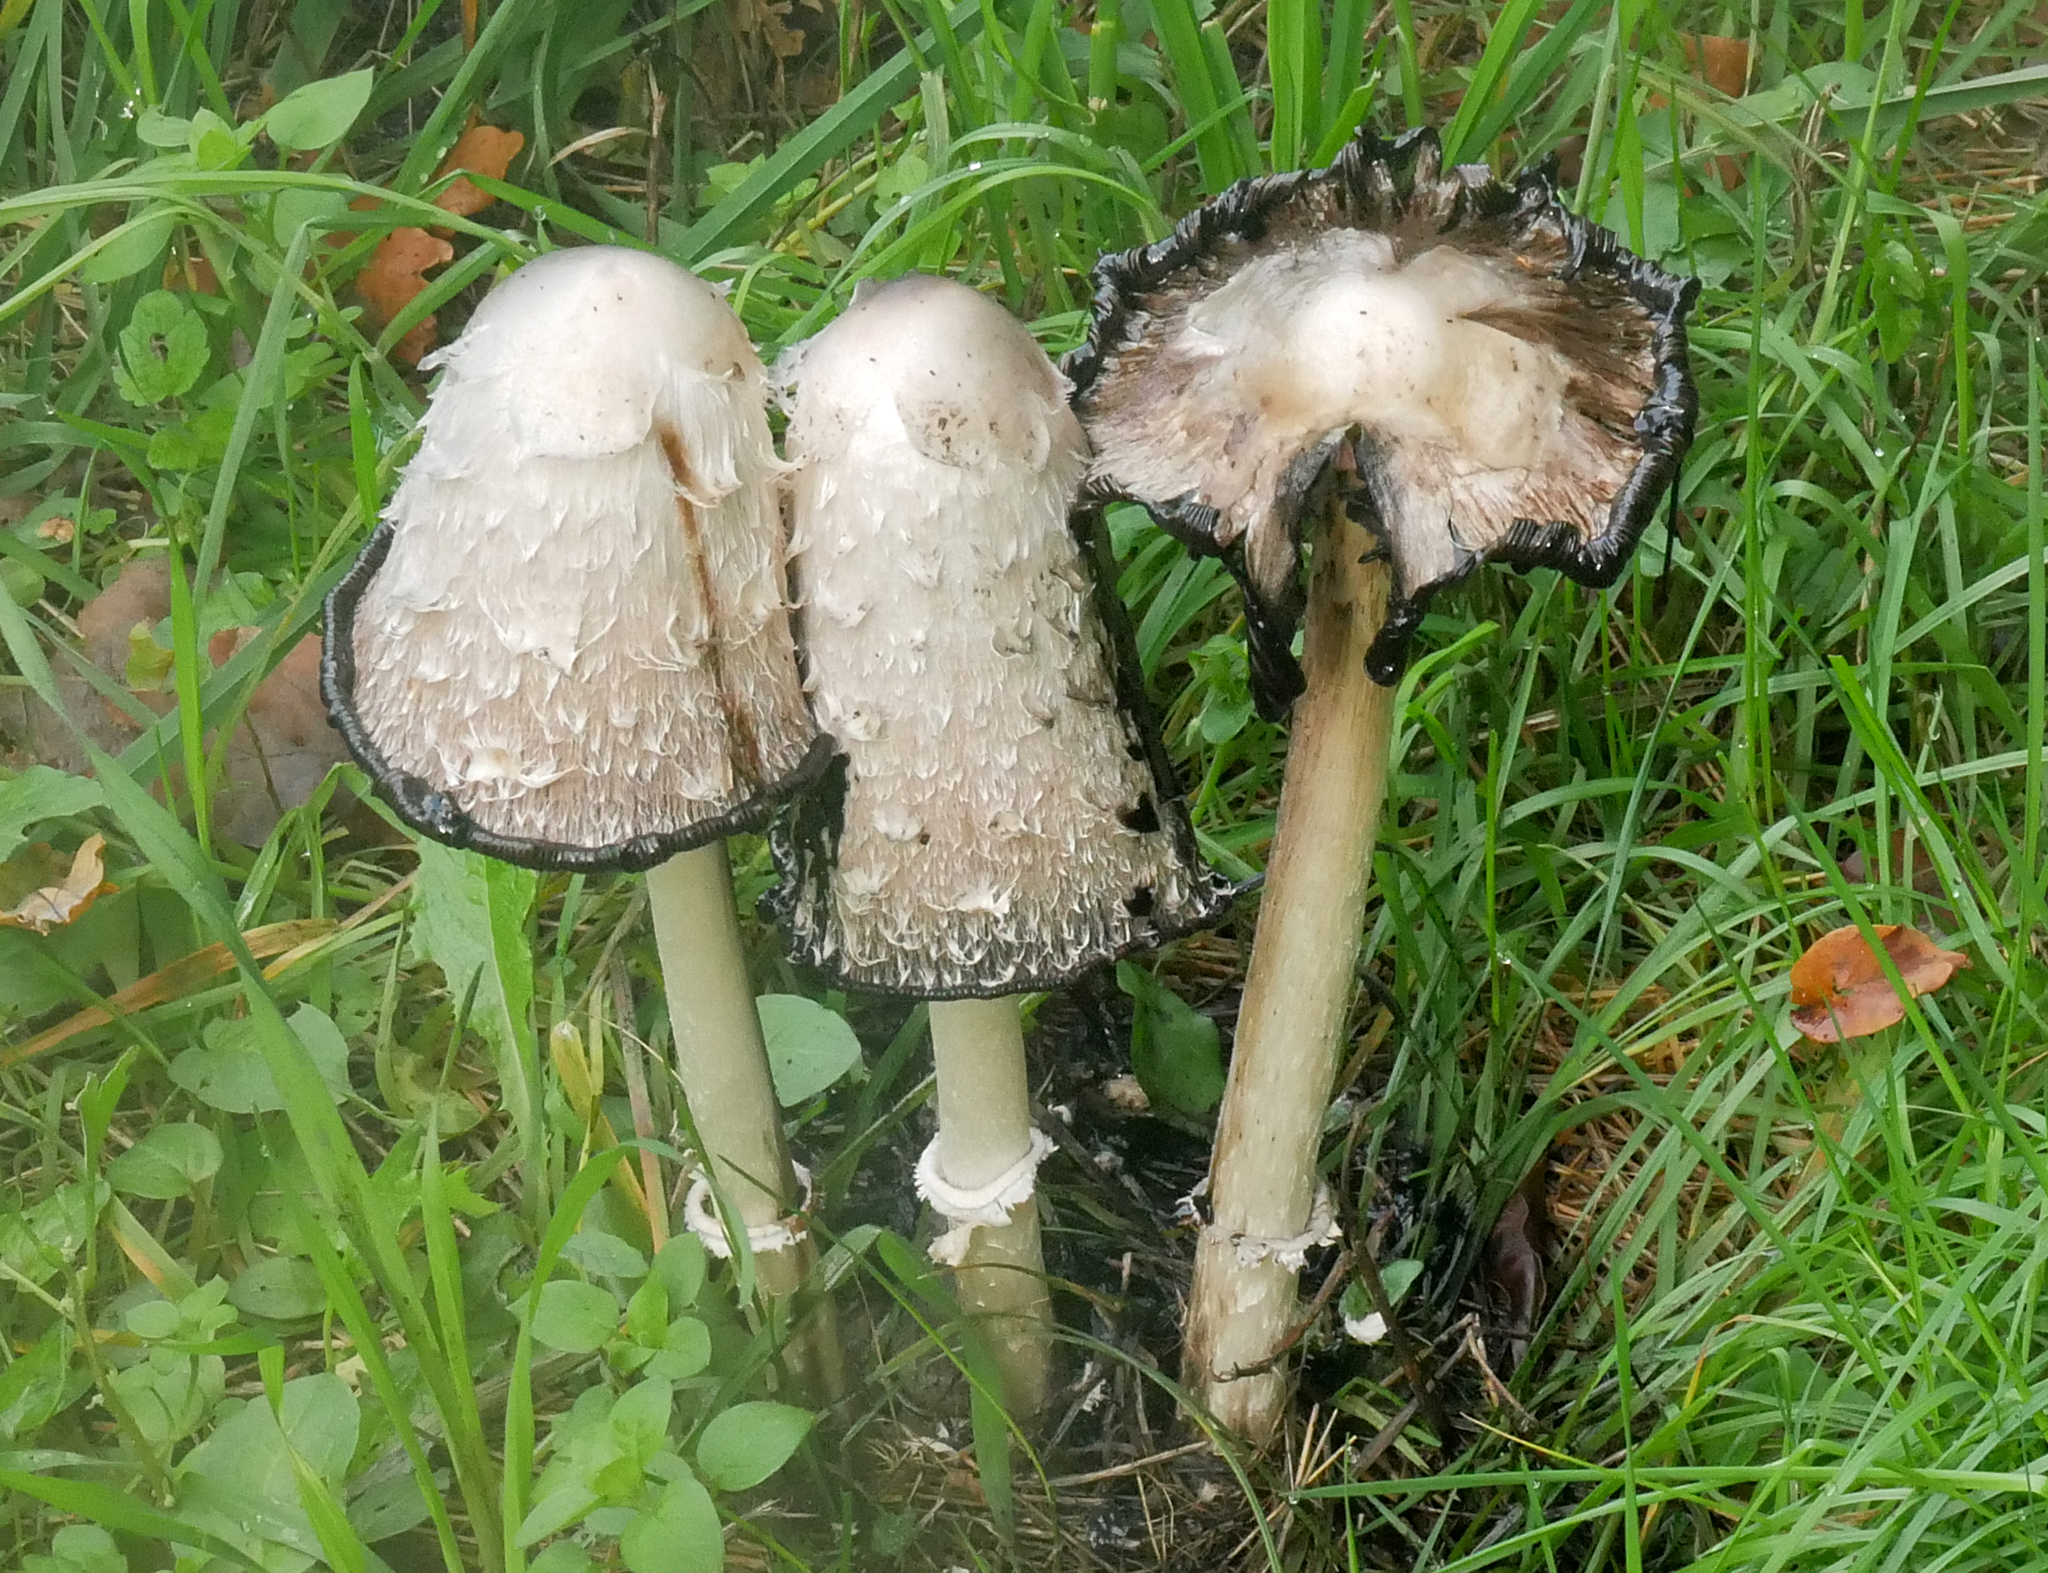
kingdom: Fungi
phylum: Basidiomycota
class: Agaricomycetes
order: Agaricales
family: Agaricaceae
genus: Coprinus
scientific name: Coprinus comatus
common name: Lawyer's wig
